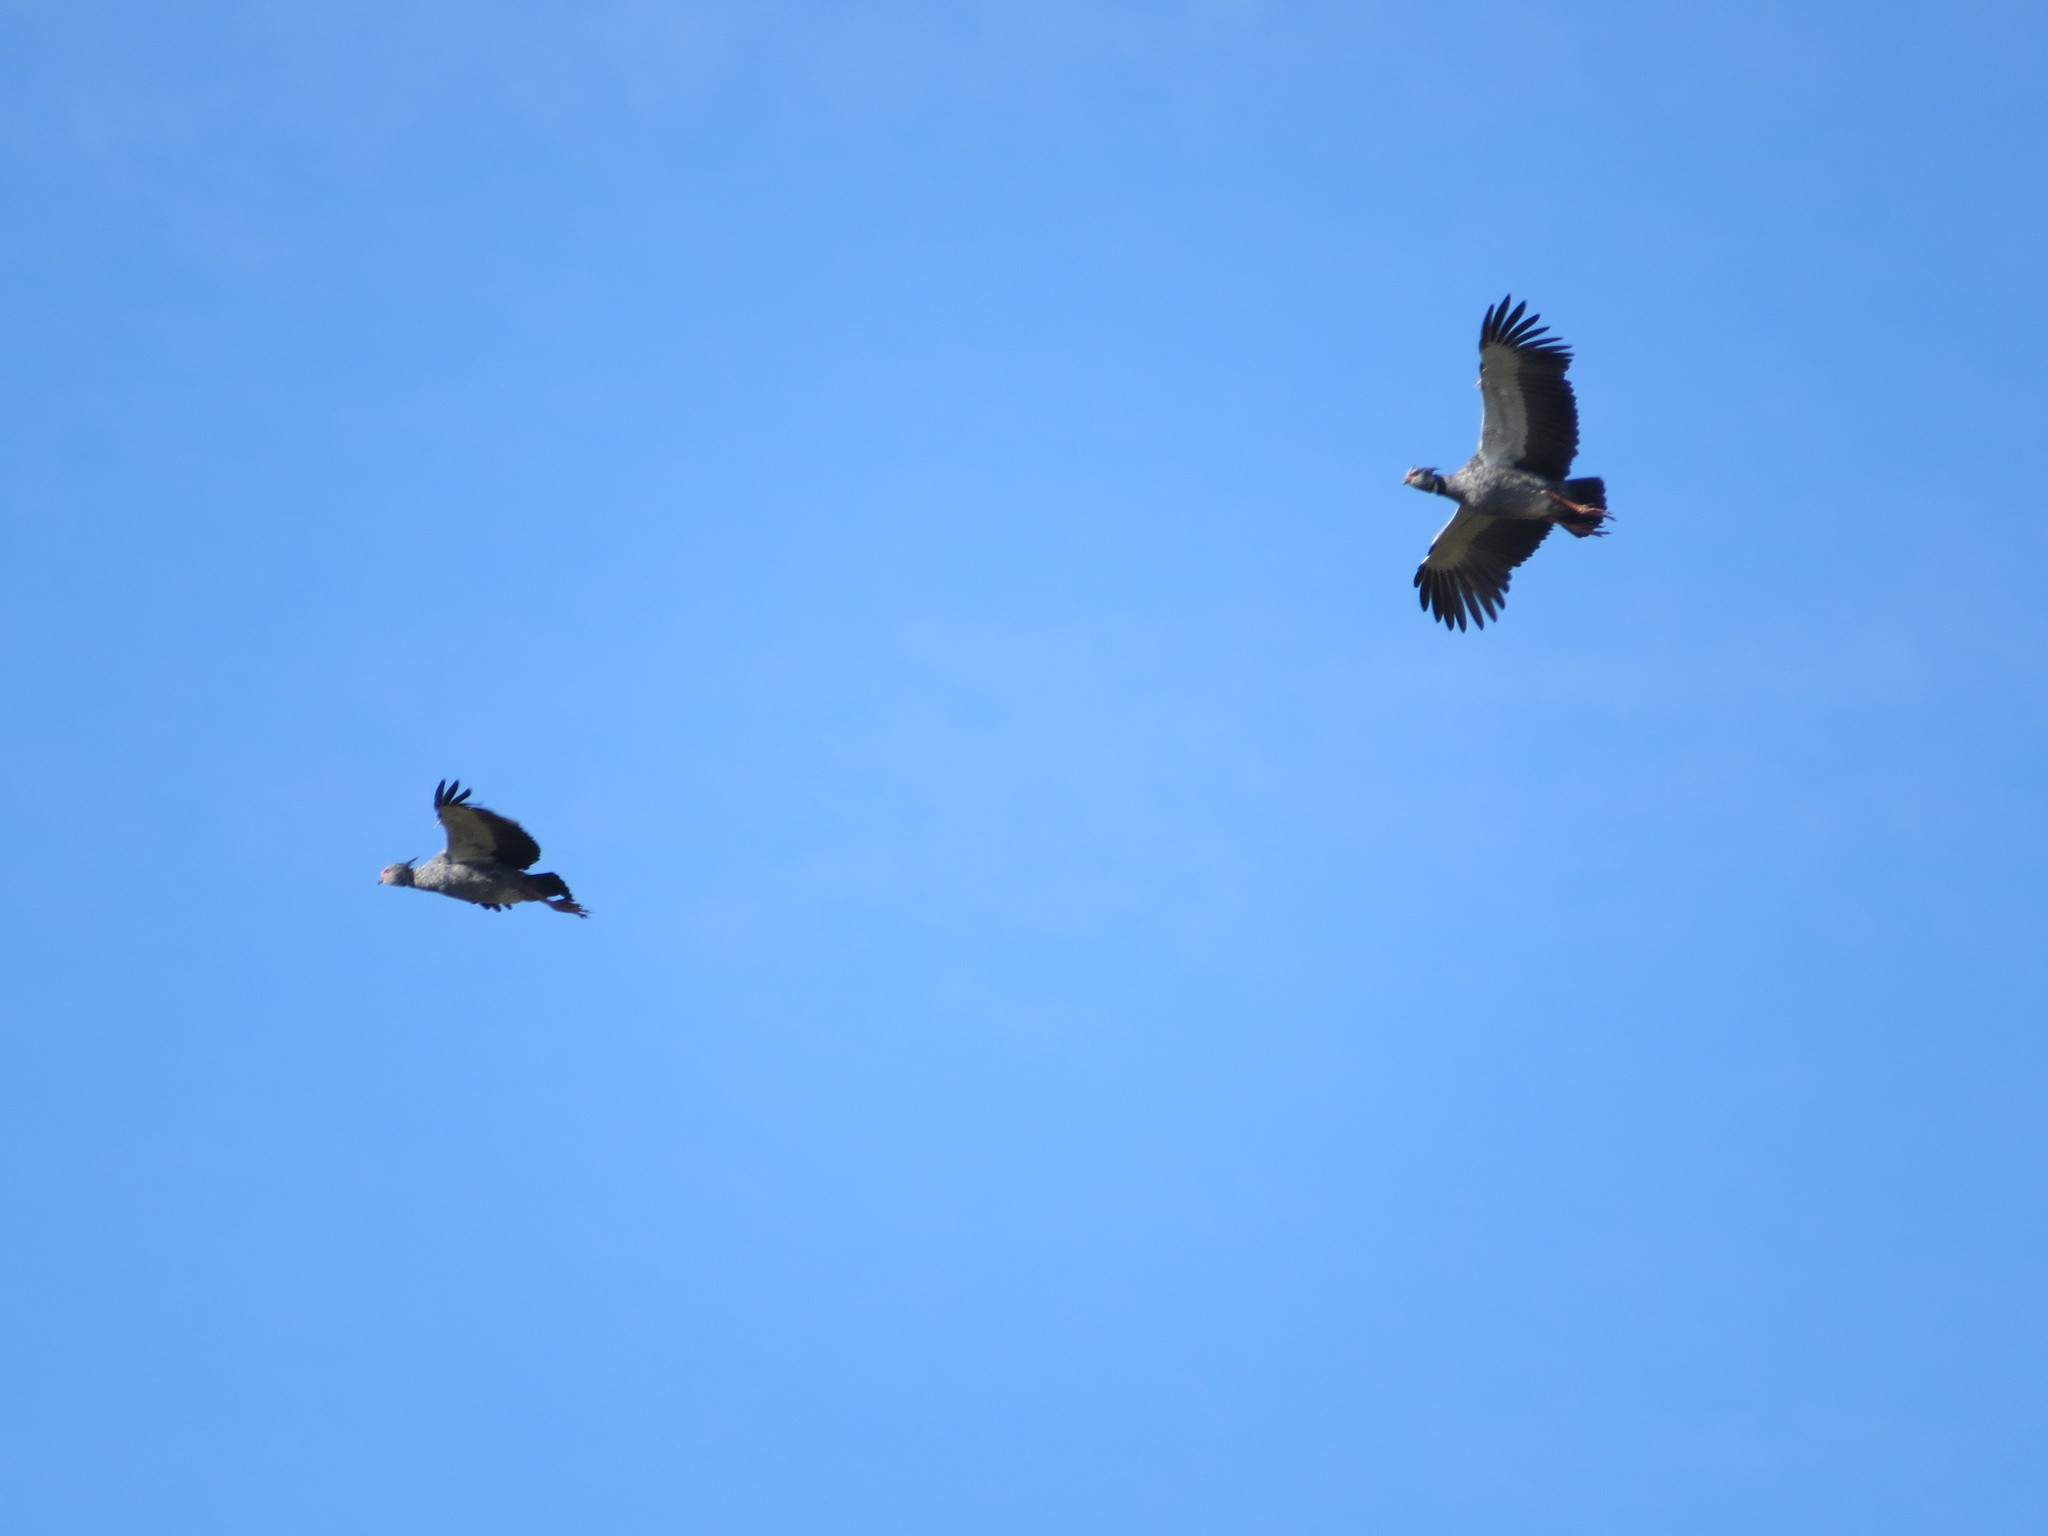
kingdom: Animalia
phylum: Chordata
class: Aves
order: Anseriformes
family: Anhimidae
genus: Chauna
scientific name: Chauna torquata
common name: Southern screamer
